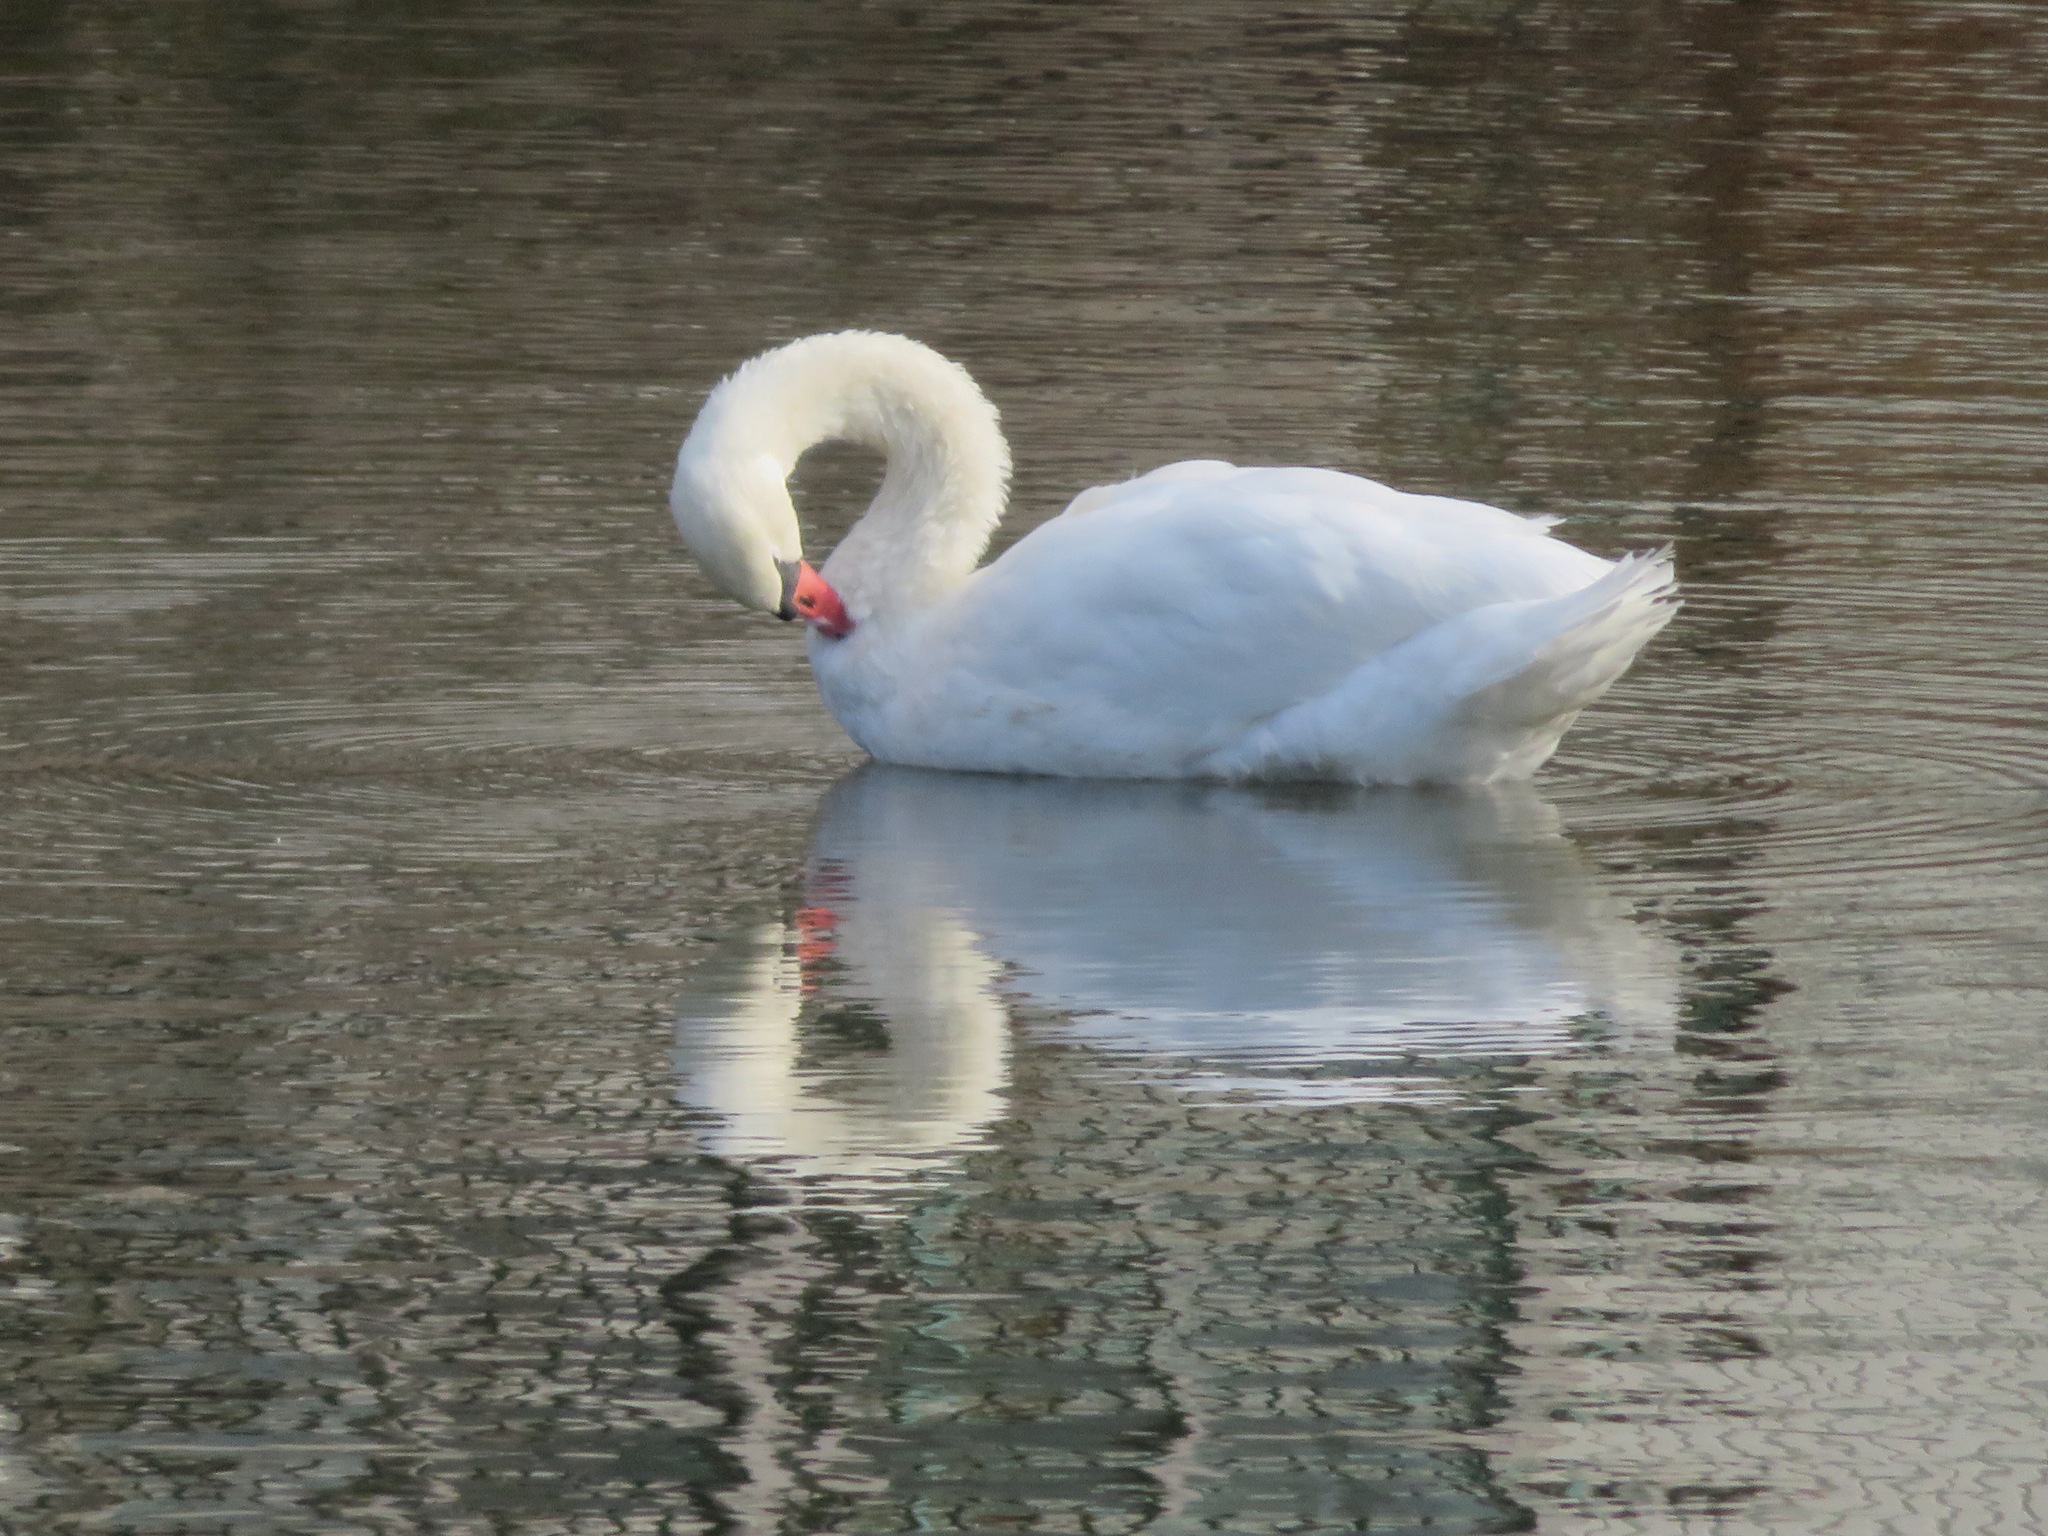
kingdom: Animalia
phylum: Chordata
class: Aves
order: Anseriformes
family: Anatidae
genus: Cygnus
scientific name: Cygnus olor
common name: Mute swan
